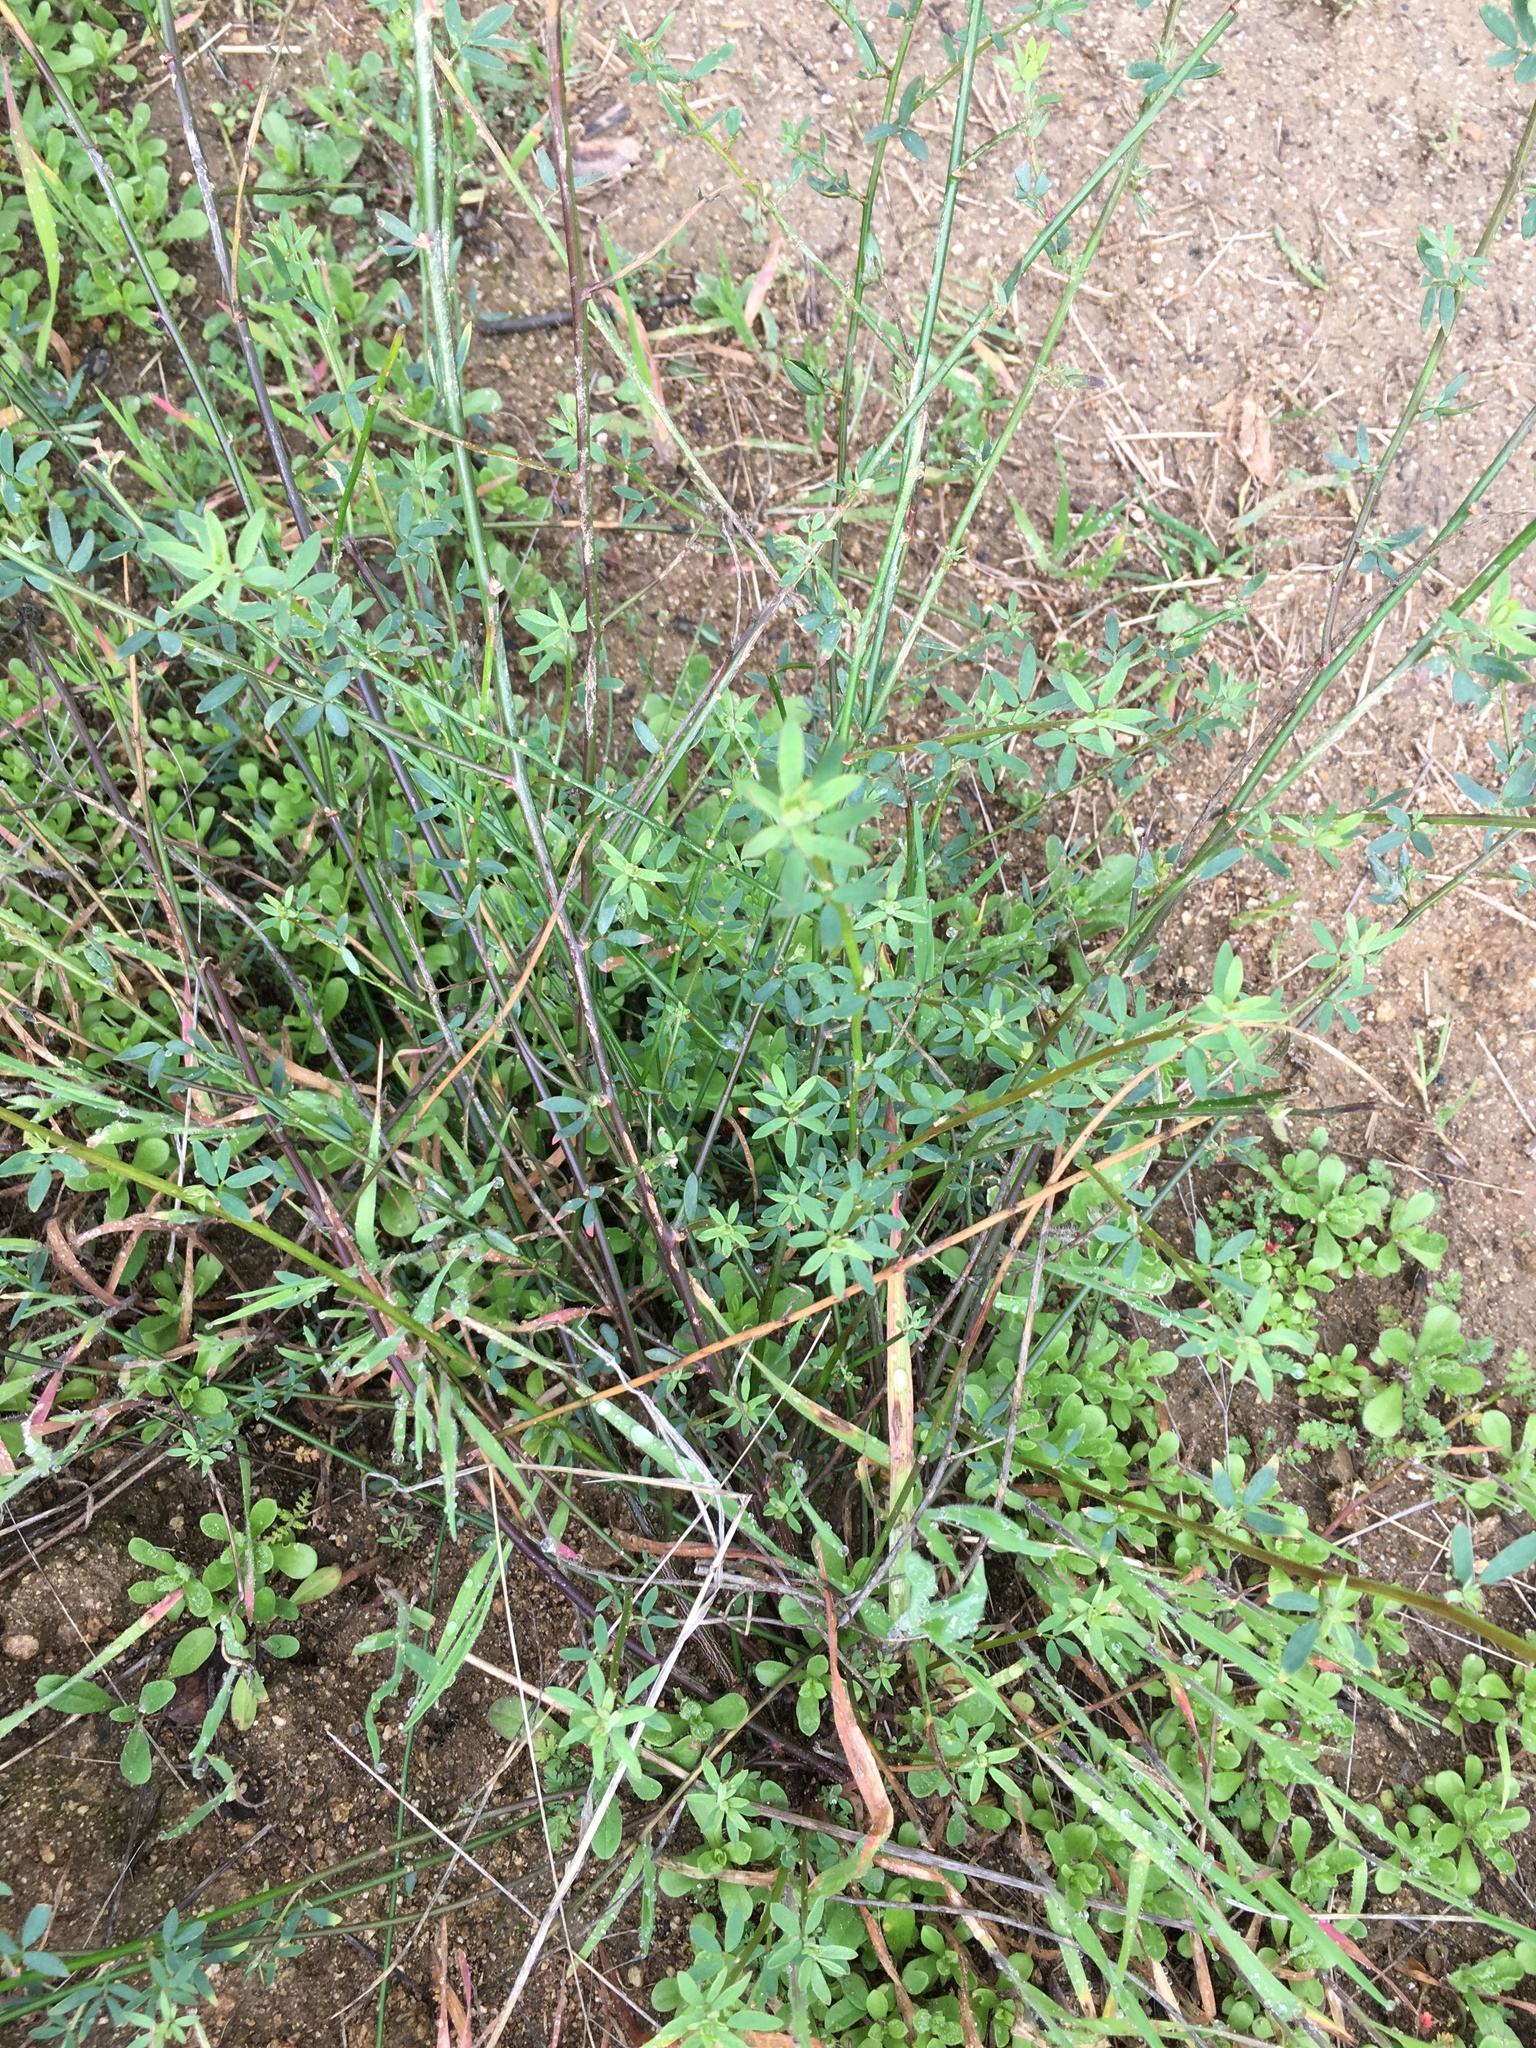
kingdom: Plantae
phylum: Tracheophyta
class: Magnoliopsida
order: Fabales
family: Fabaceae
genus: Acmispon
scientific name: Acmispon glaber
